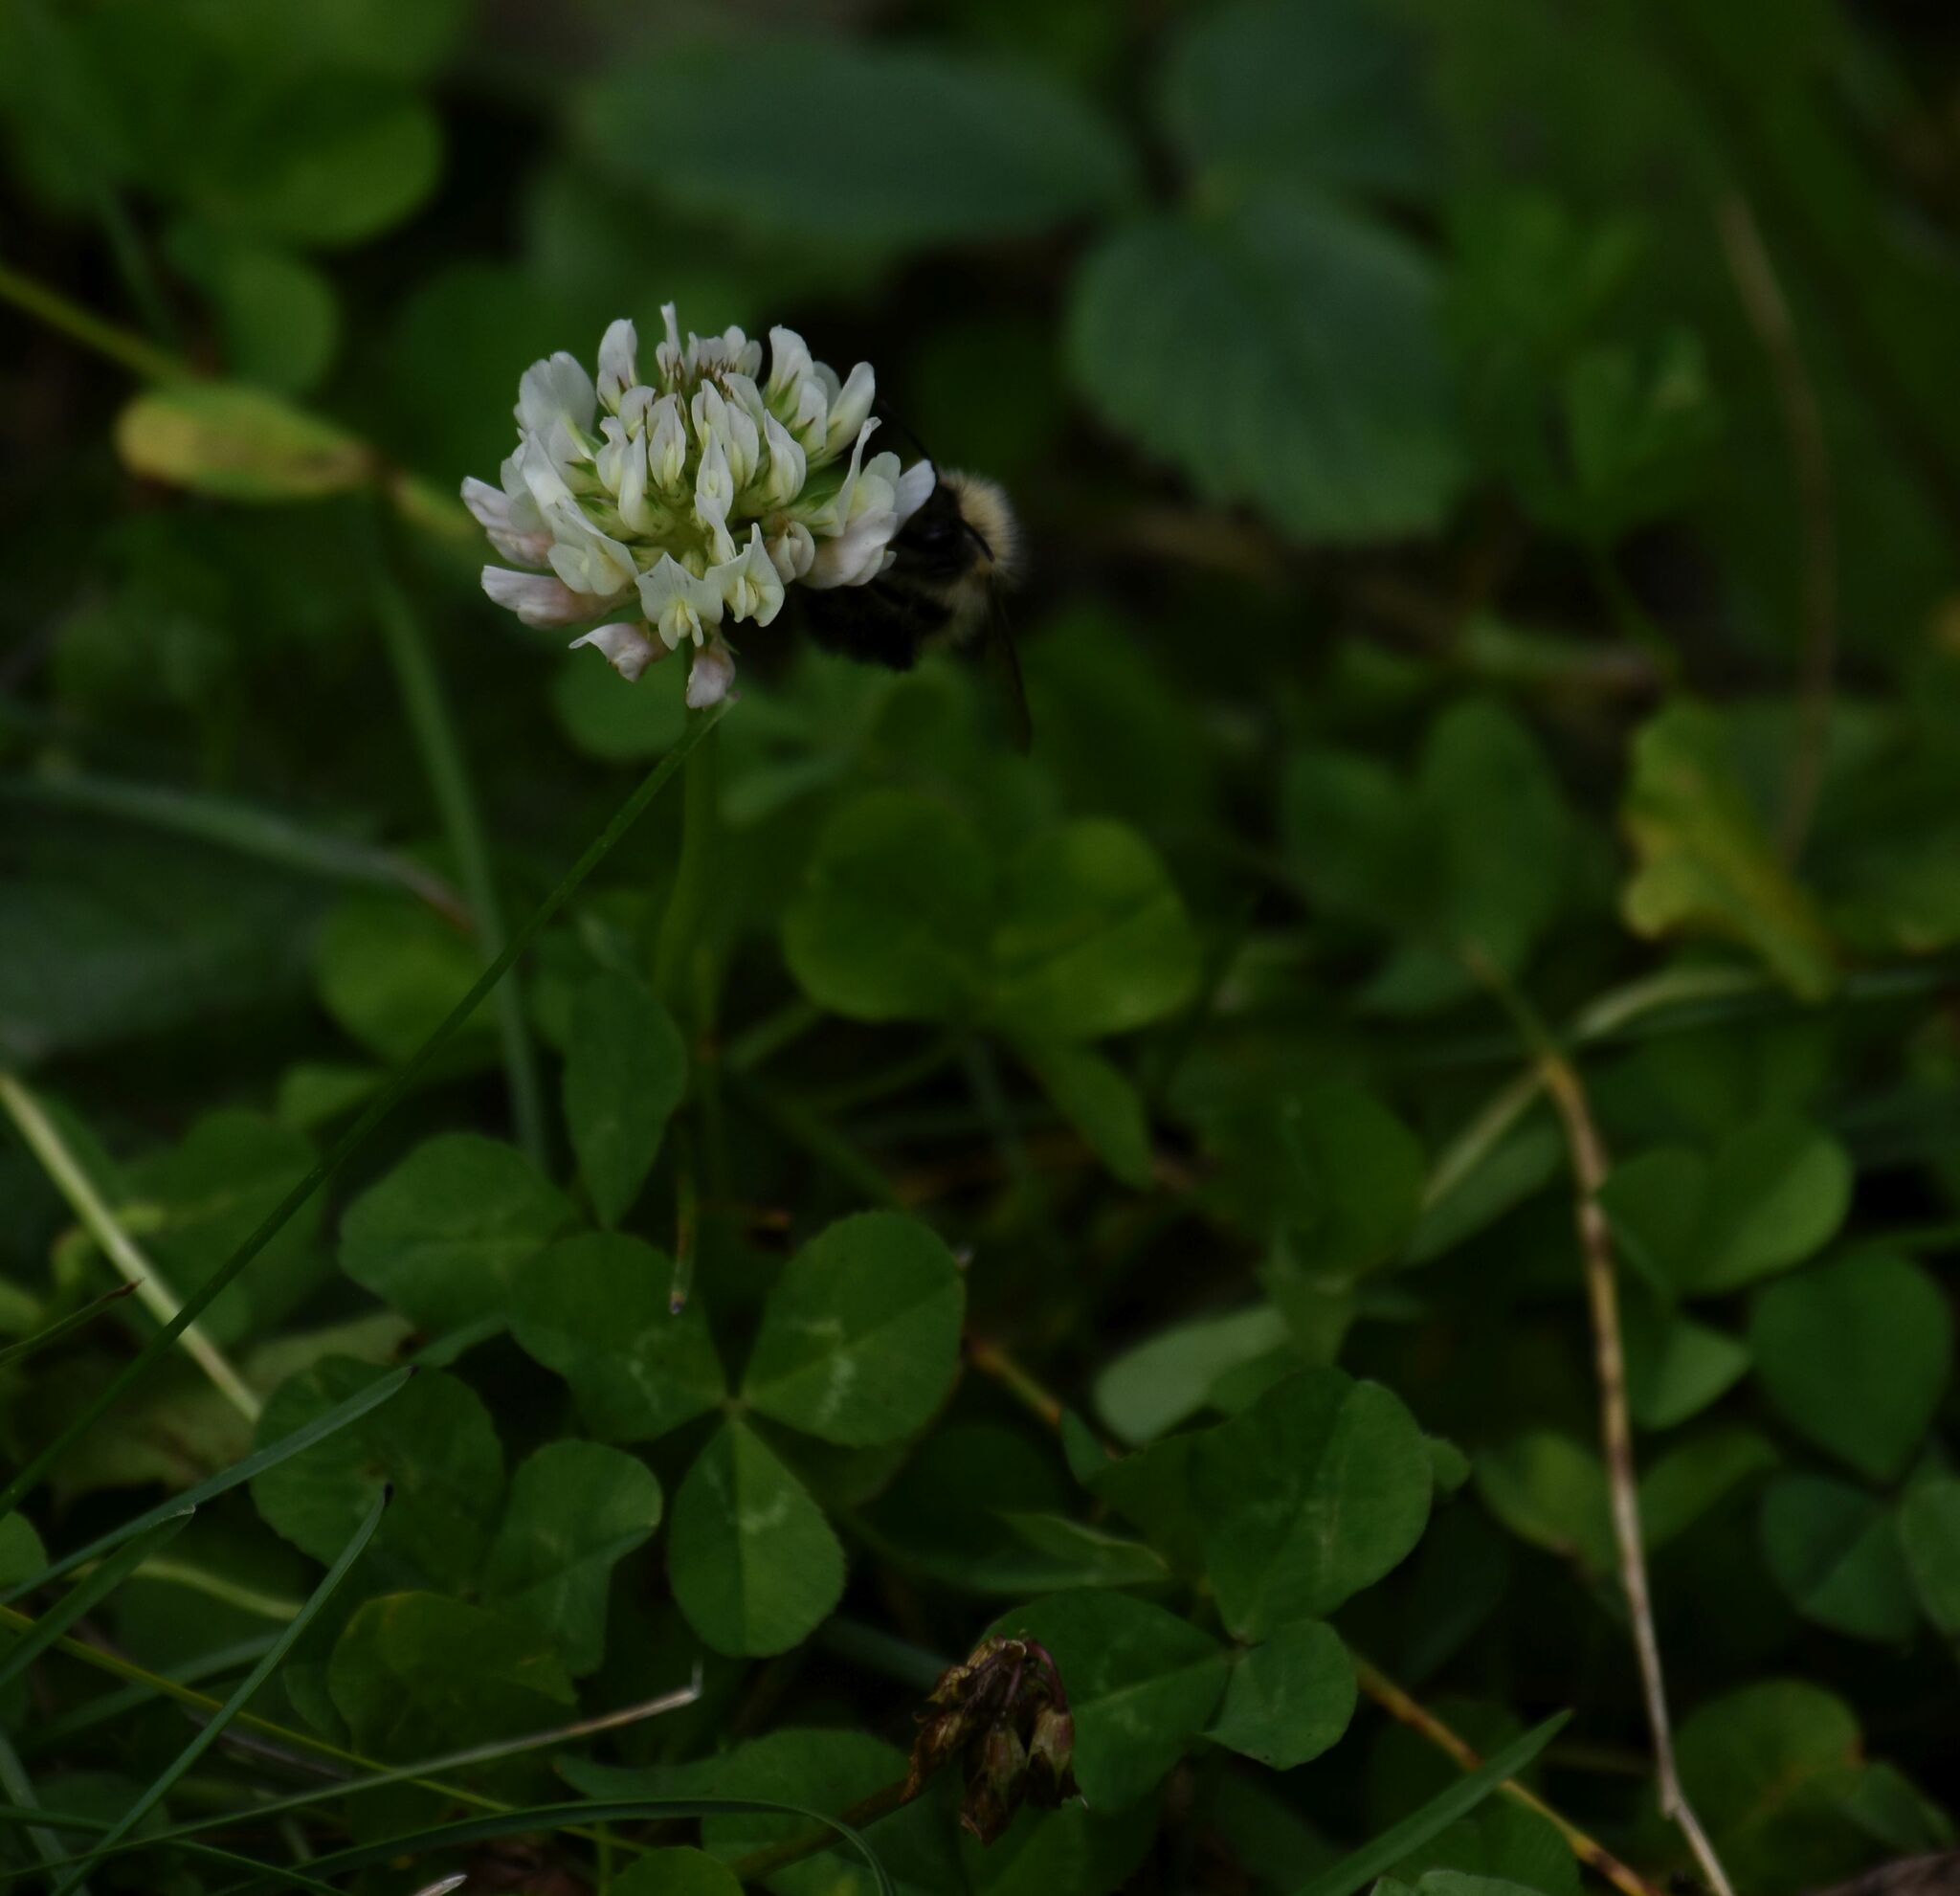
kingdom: Plantae
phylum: Tracheophyta
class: Magnoliopsida
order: Fabales
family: Fabaceae
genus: Trifolium
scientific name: Trifolium repens
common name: White clover
